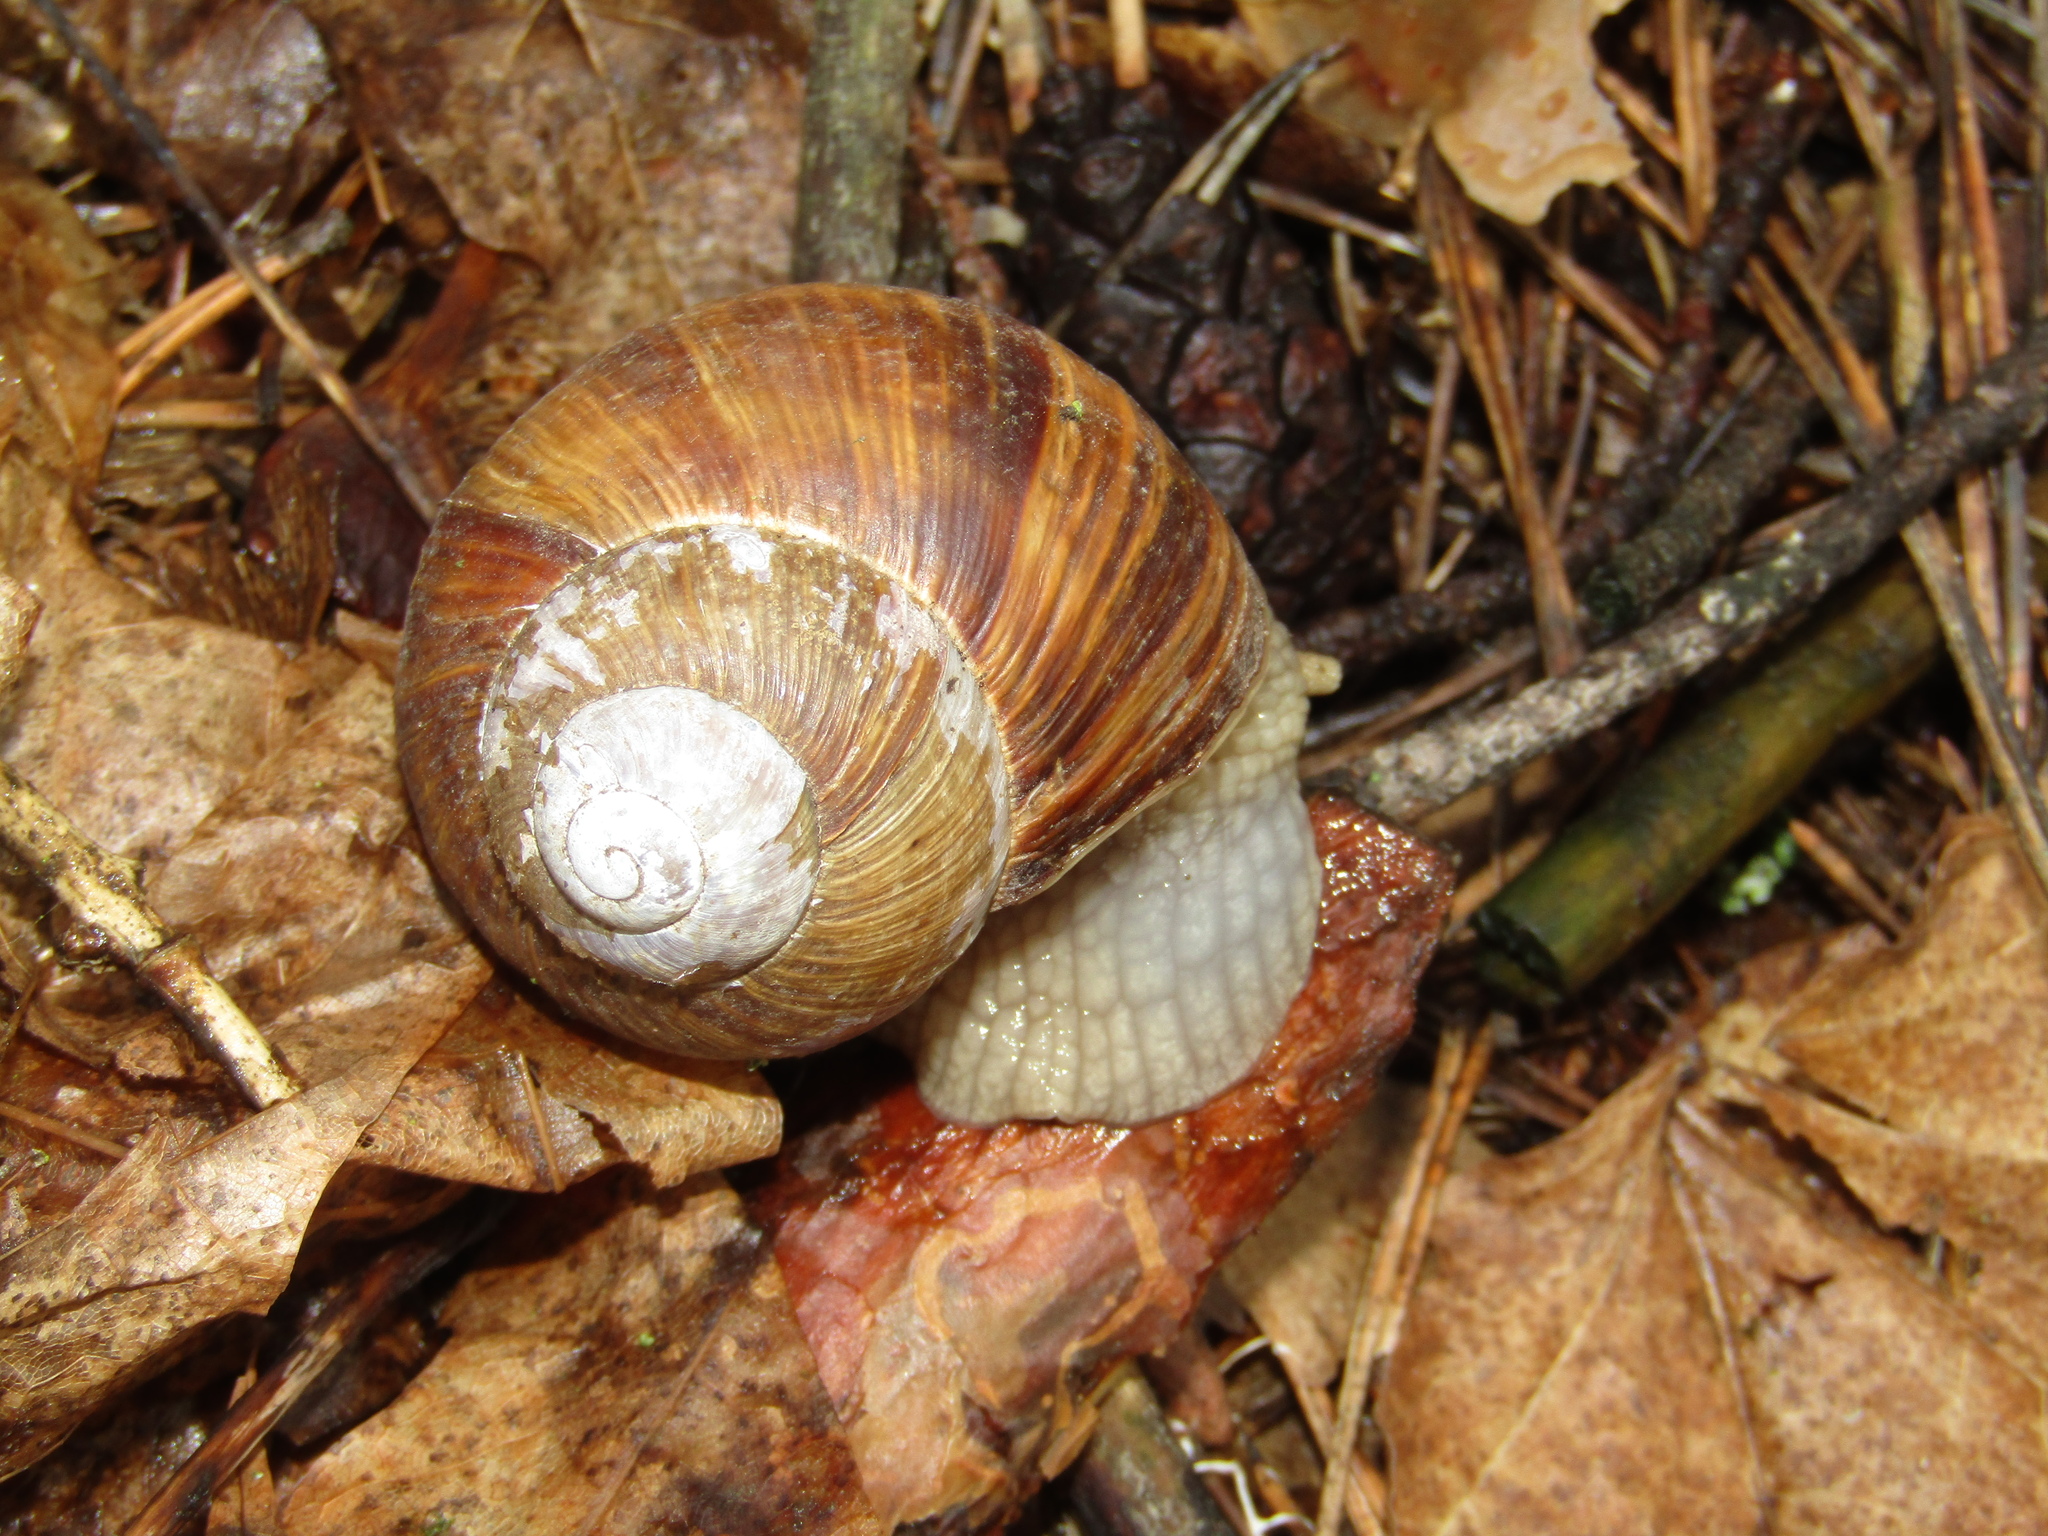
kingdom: Animalia
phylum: Mollusca
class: Gastropoda
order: Stylommatophora
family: Helicidae
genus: Helix
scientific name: Helix pomatia
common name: Roman snail
